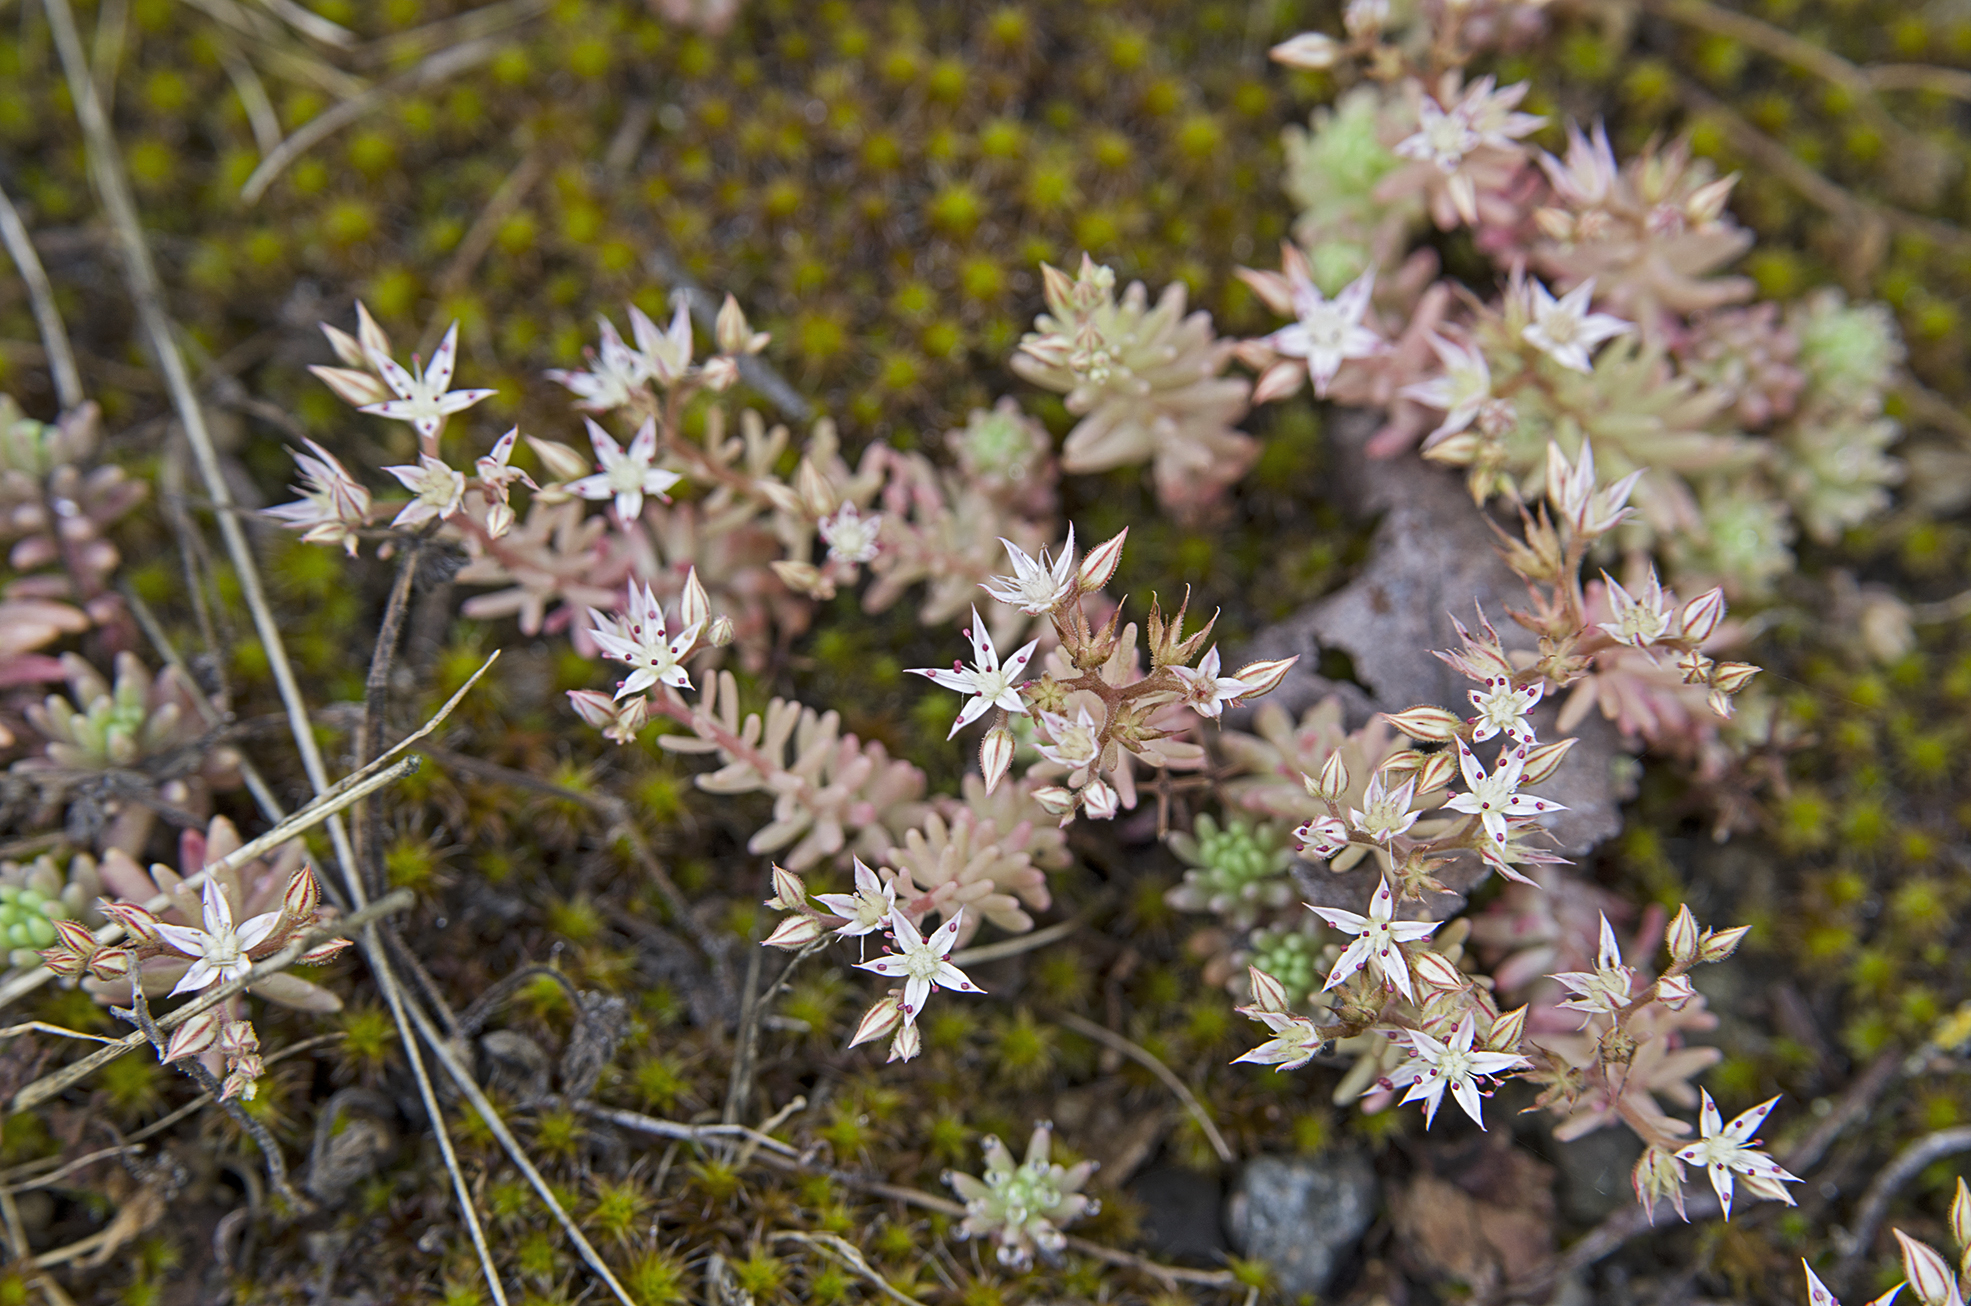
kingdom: Plantae
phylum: Tracheophyta
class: Magnoliopsida
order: Saxifragales
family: Crassulaceae
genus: Sedum
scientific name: Sedum pallidum
